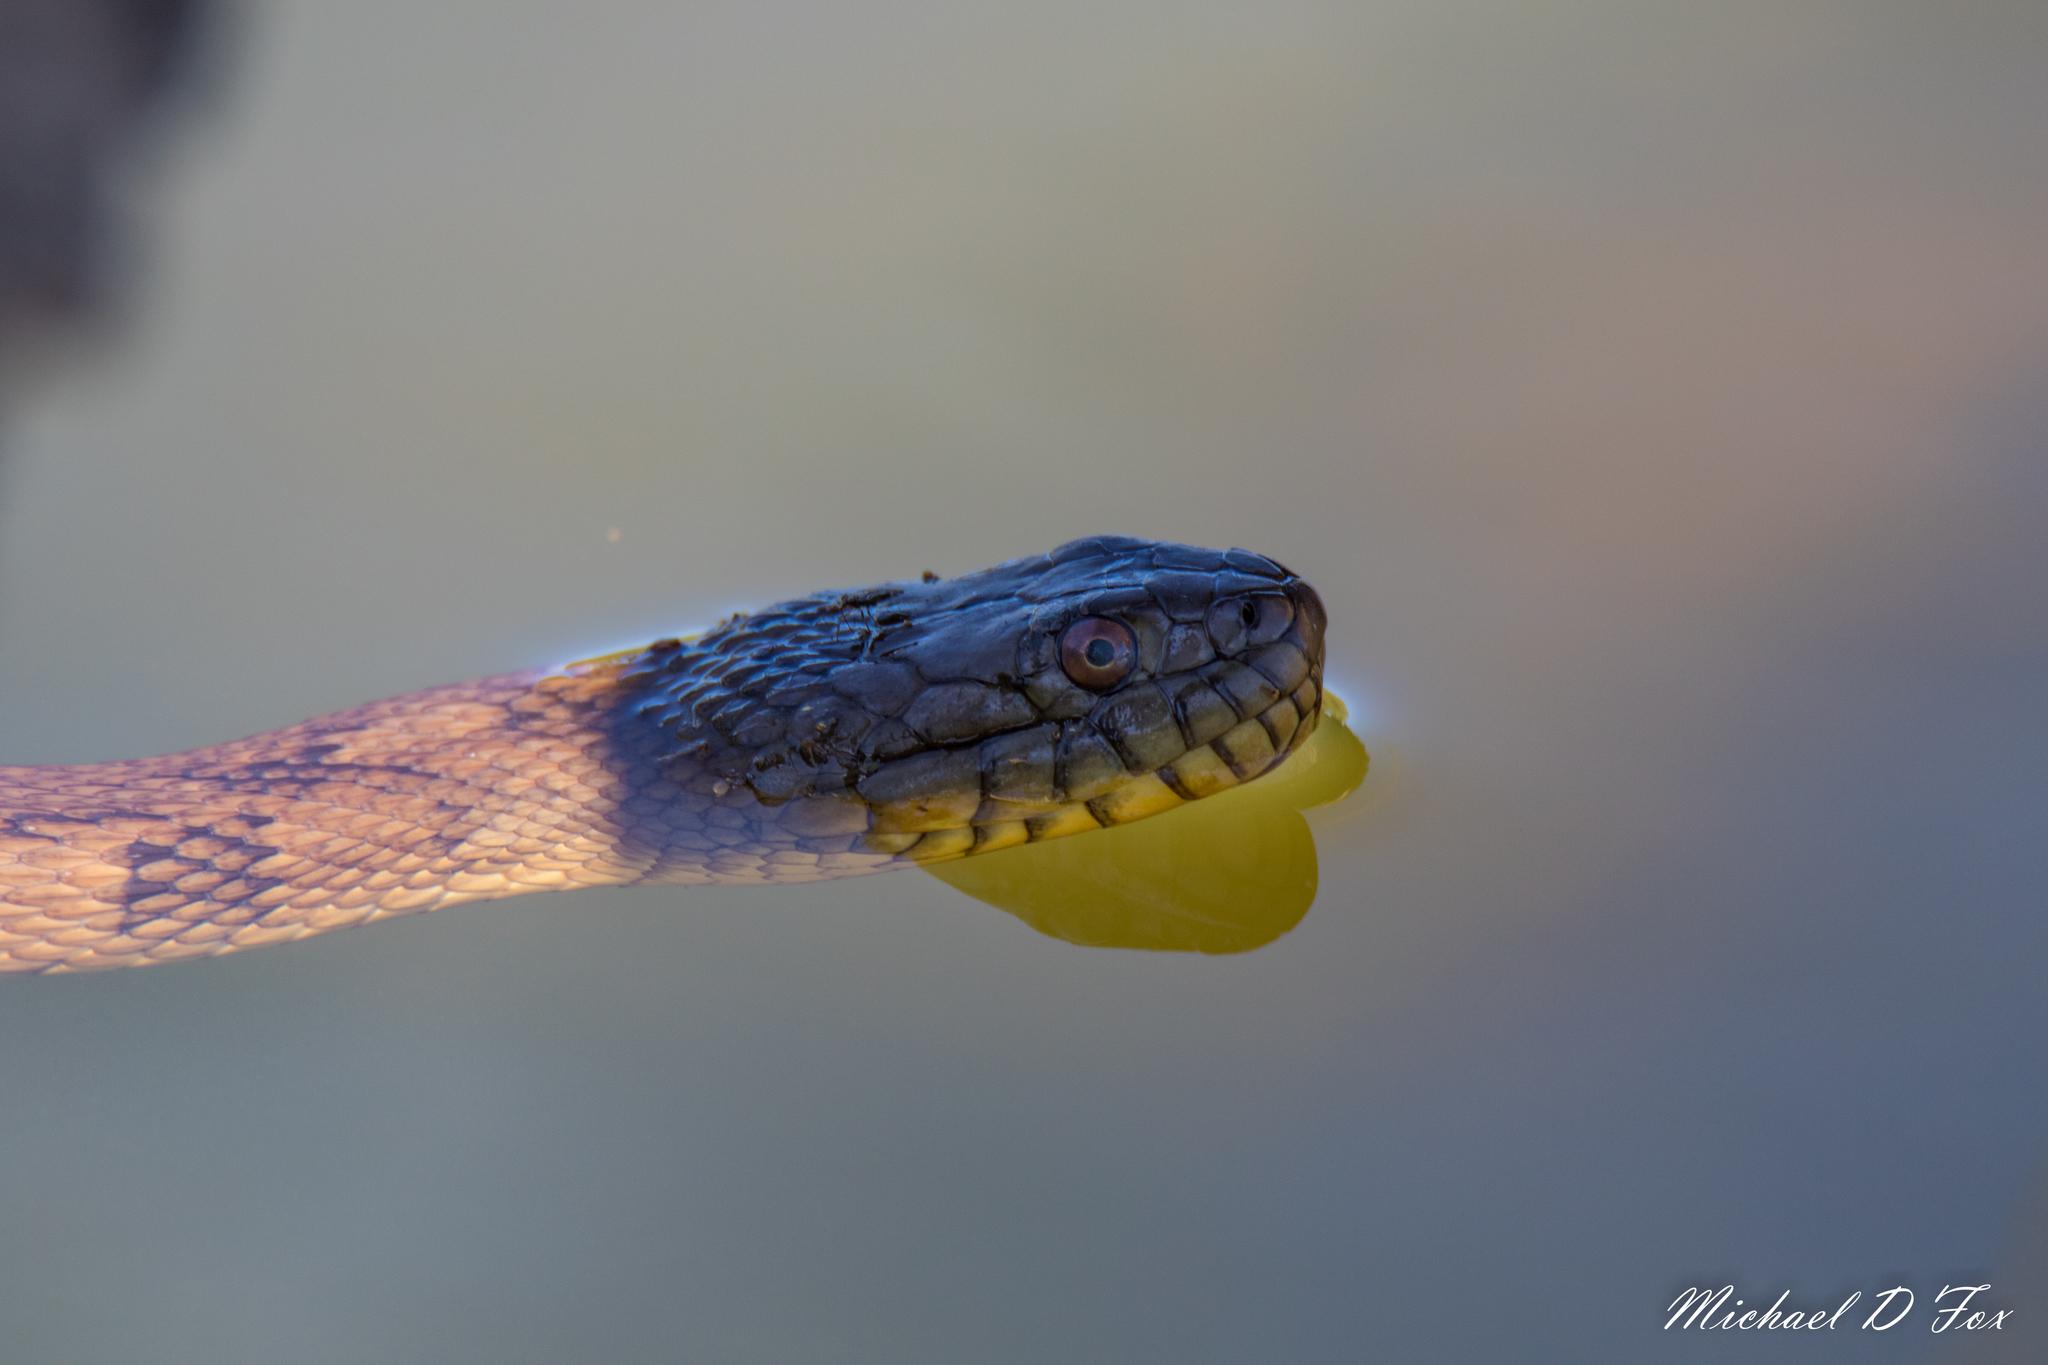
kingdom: Animalia
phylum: Chordata
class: Squamata
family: Colubridae
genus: Nerodia
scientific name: Nerodia rhombifer
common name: Diamondback water snake
